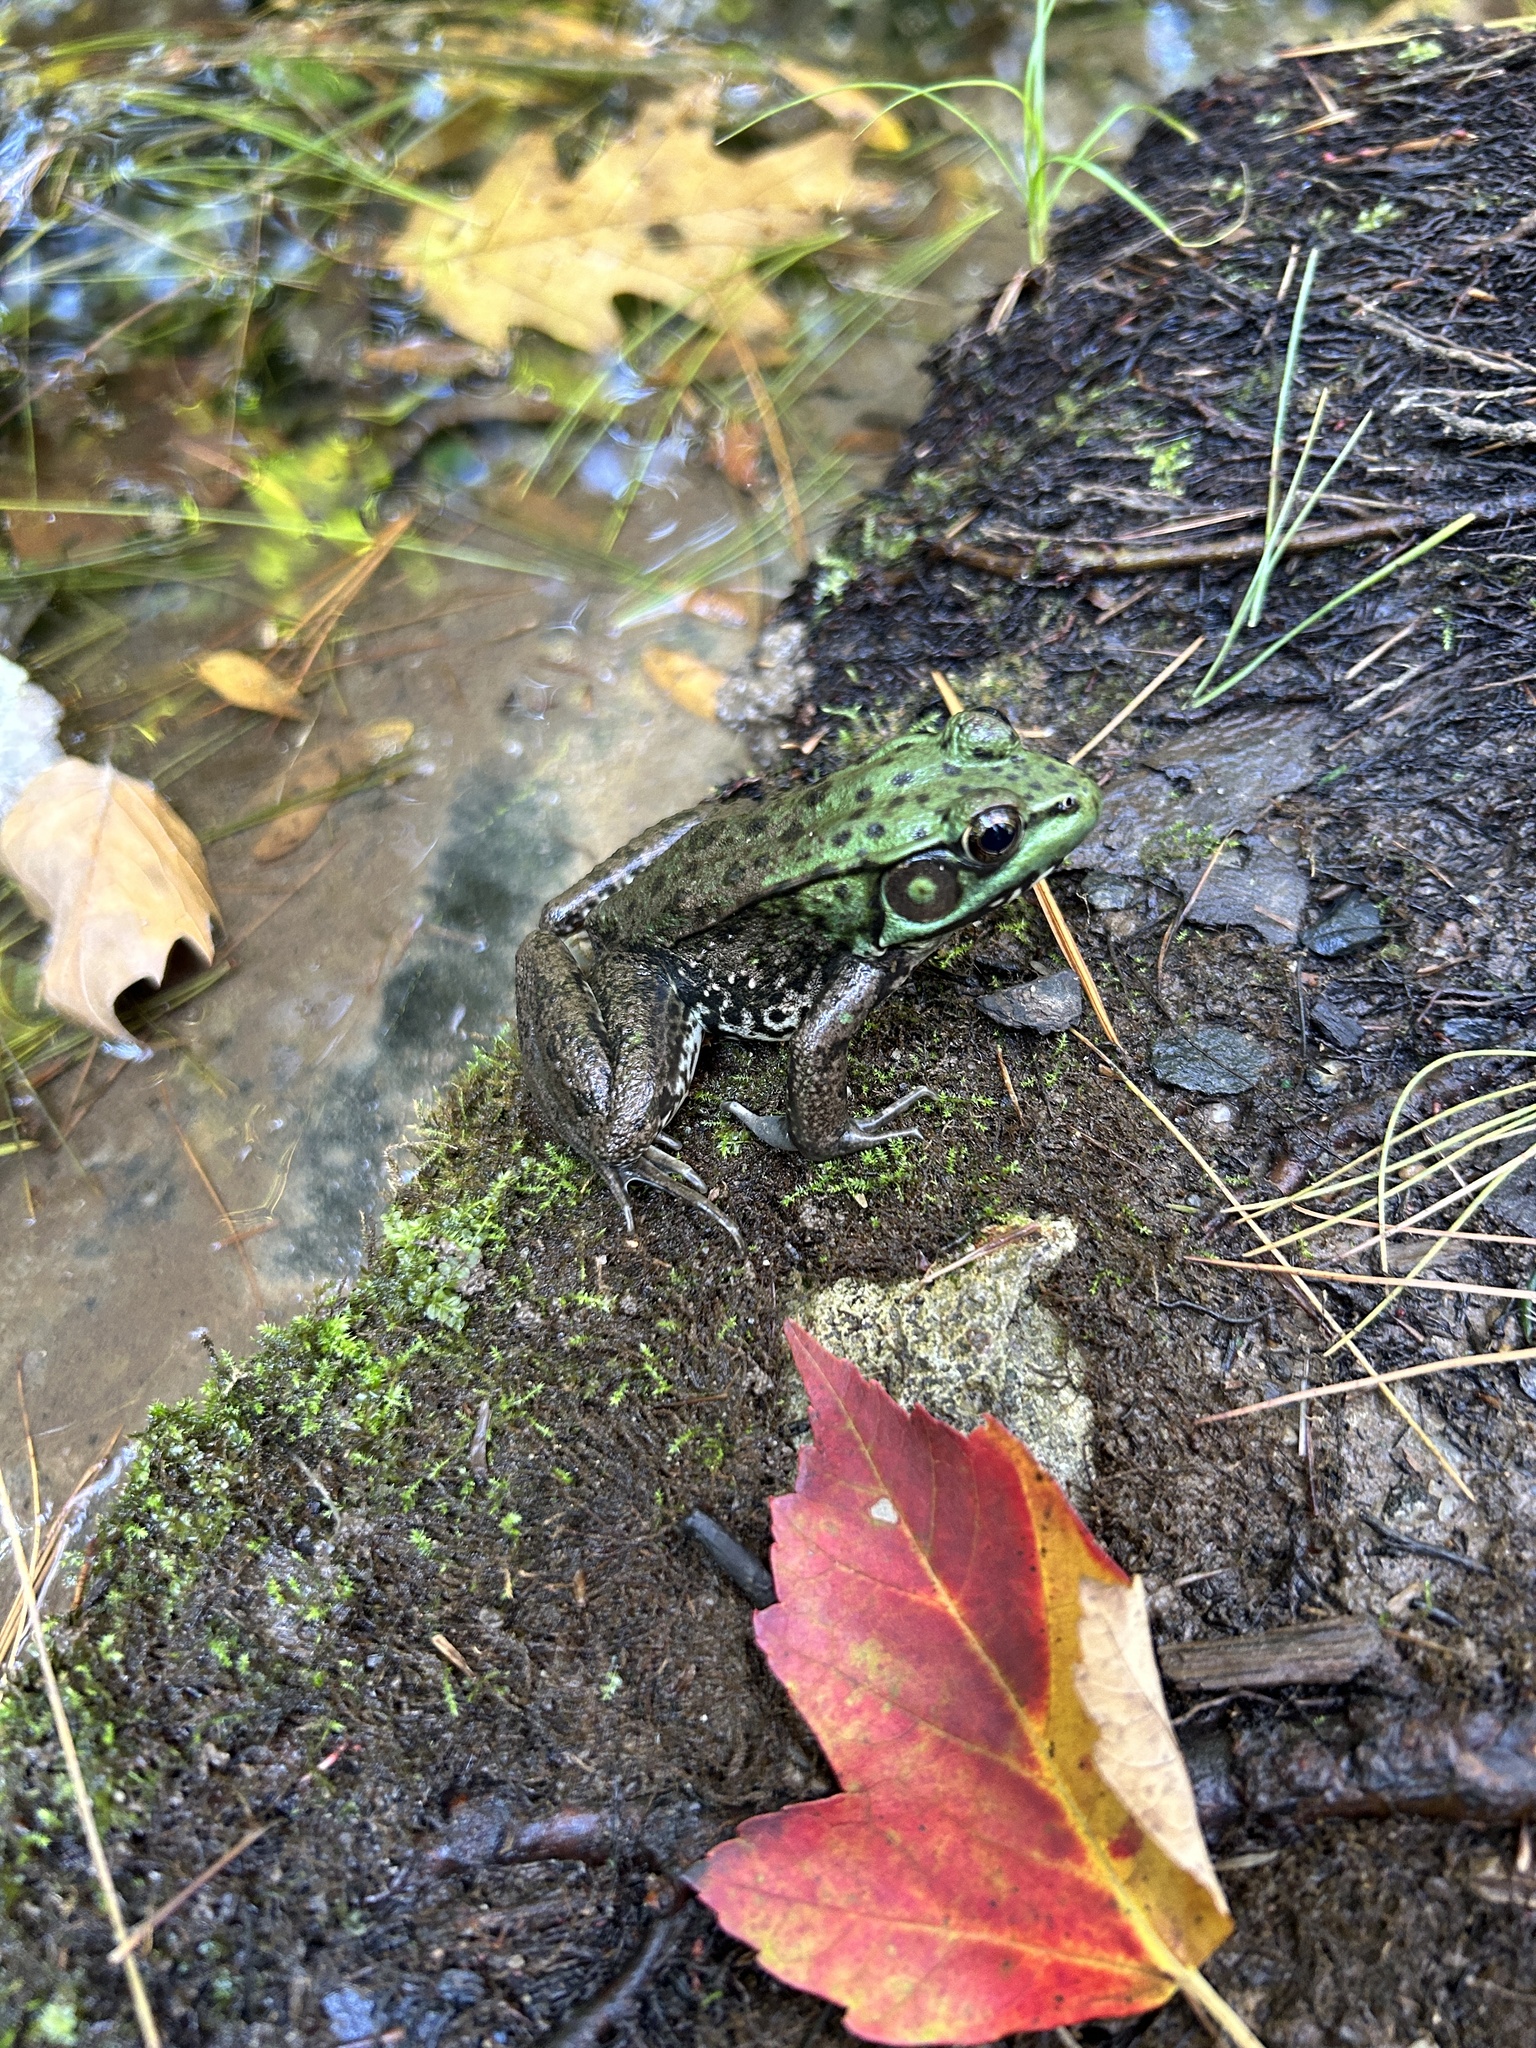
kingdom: Animalia
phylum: Chordata
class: Amphibia
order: Anura
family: Ranidae
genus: Lithobates
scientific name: Lithobates clamitans
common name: Green frog
